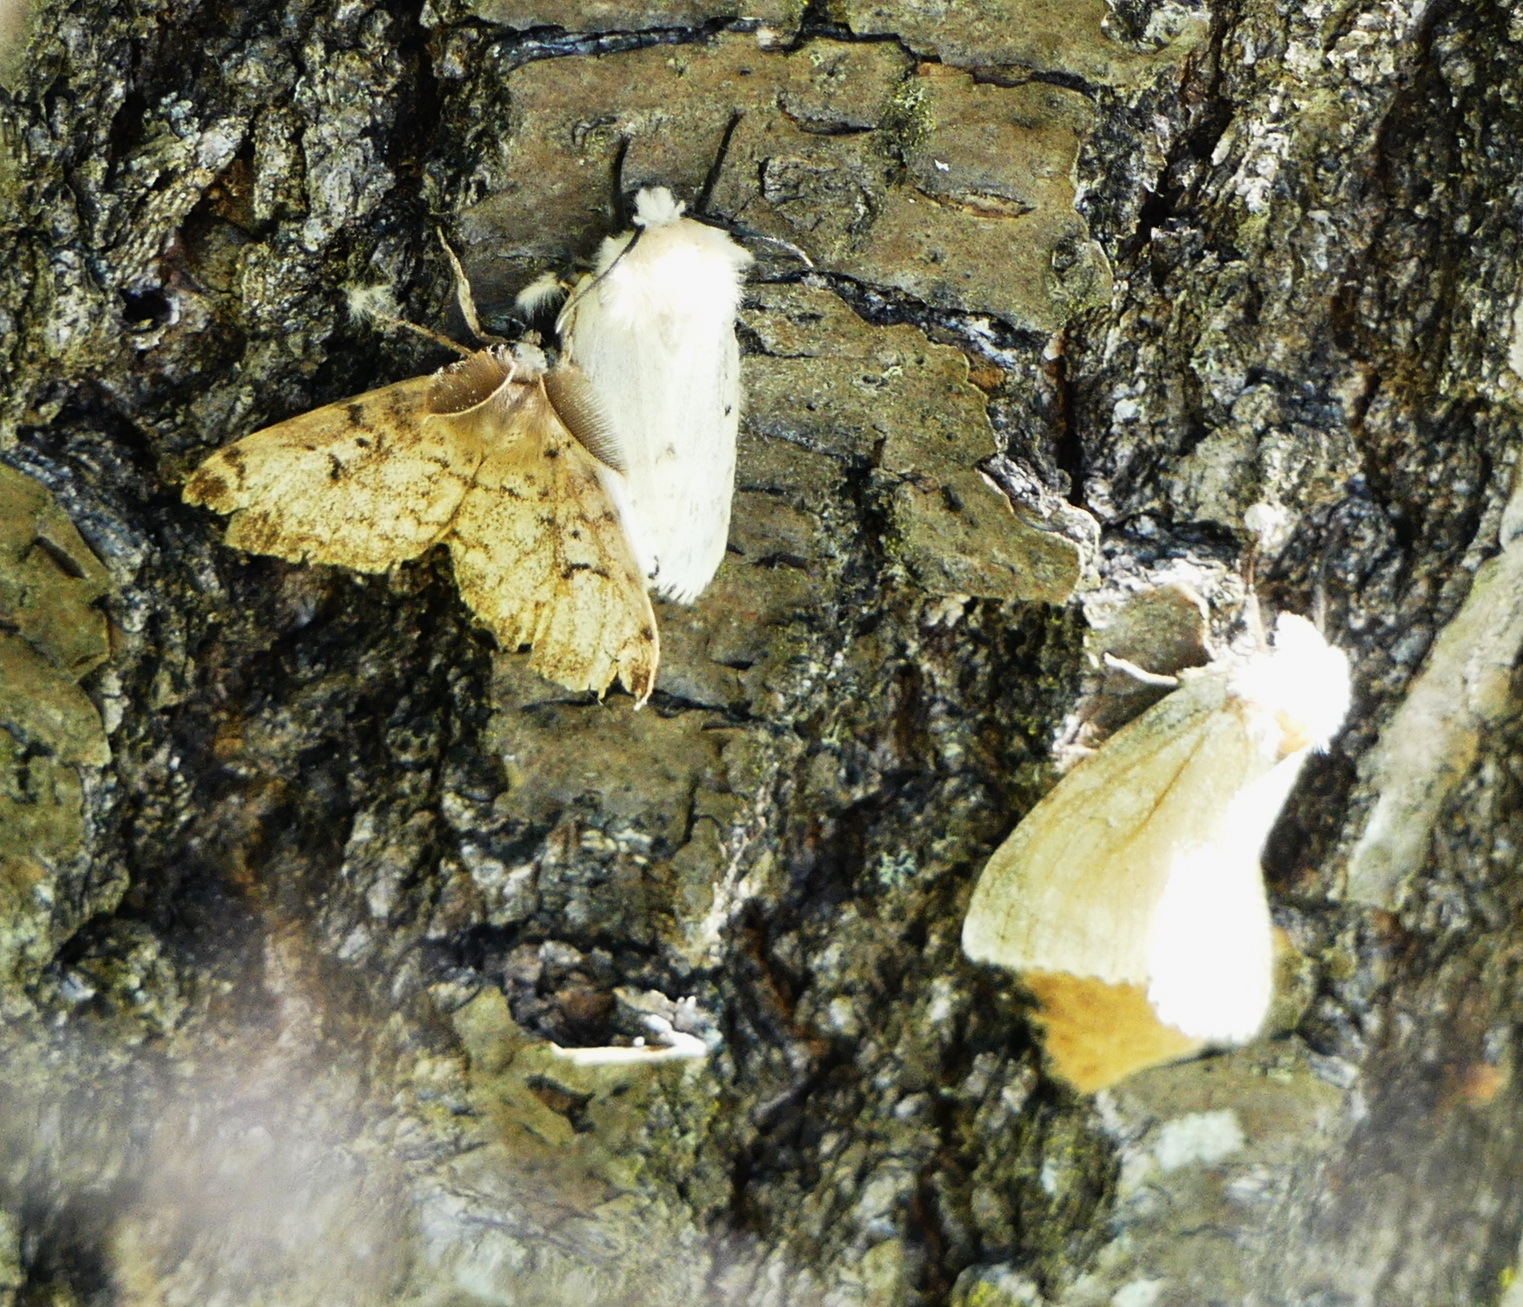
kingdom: Animalia
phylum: Arthropoda
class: Insecta
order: Lepidoptera
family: Erebidae
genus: Lymantria
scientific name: Lymantria dispar
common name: Gypsy moth
